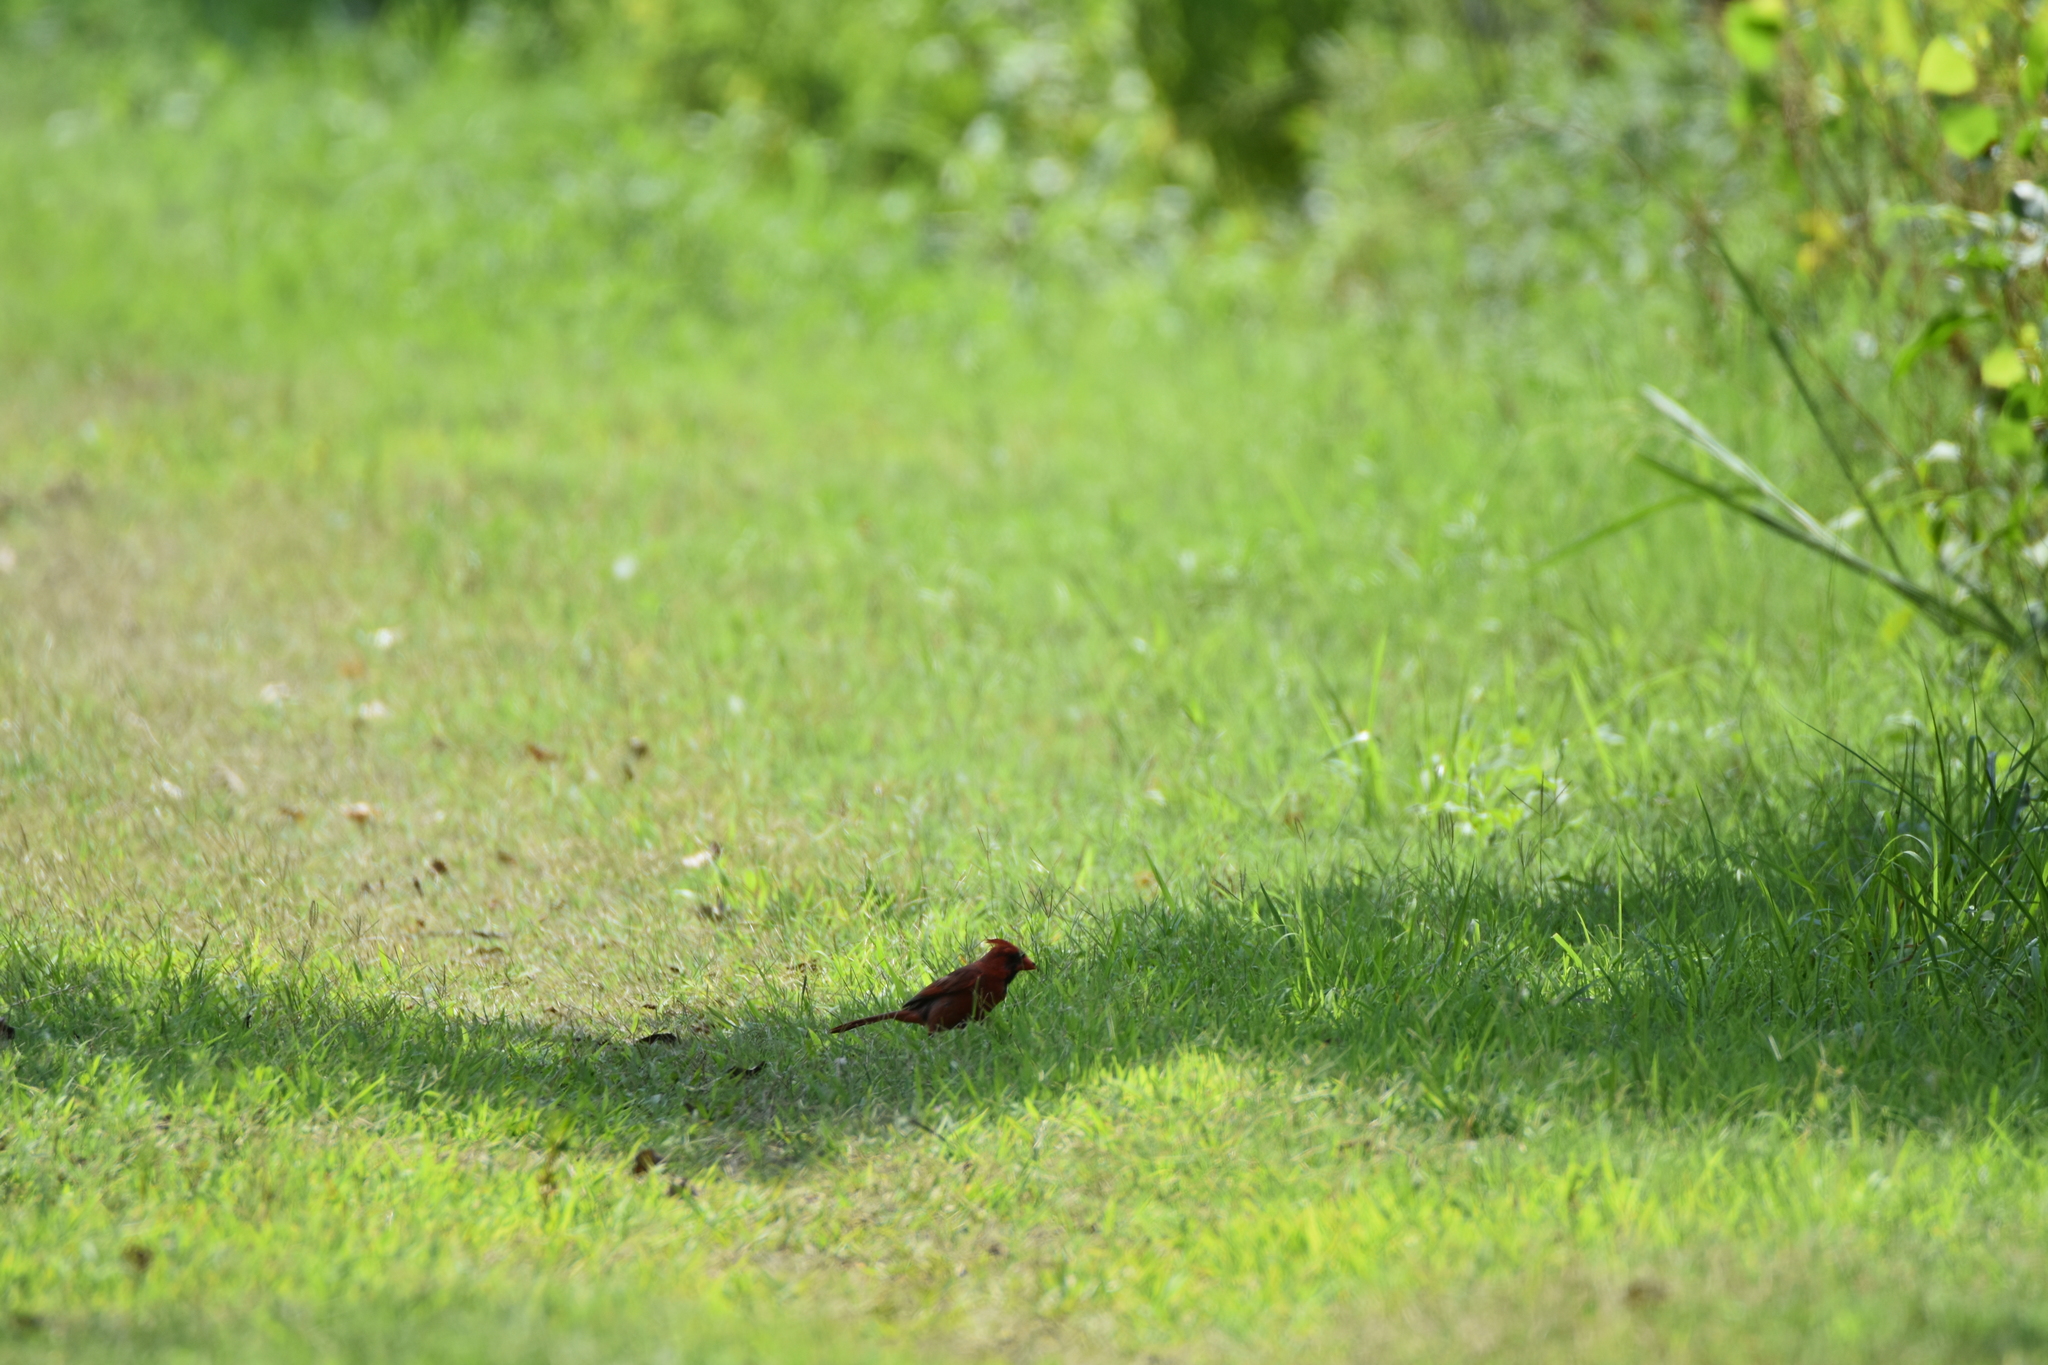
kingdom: Animalia
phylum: Chordata
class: Aves
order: Passeriformes
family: Cardinalidae
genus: Cardinalis
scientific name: Cardinalis cardinalis
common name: Northern cardinal
